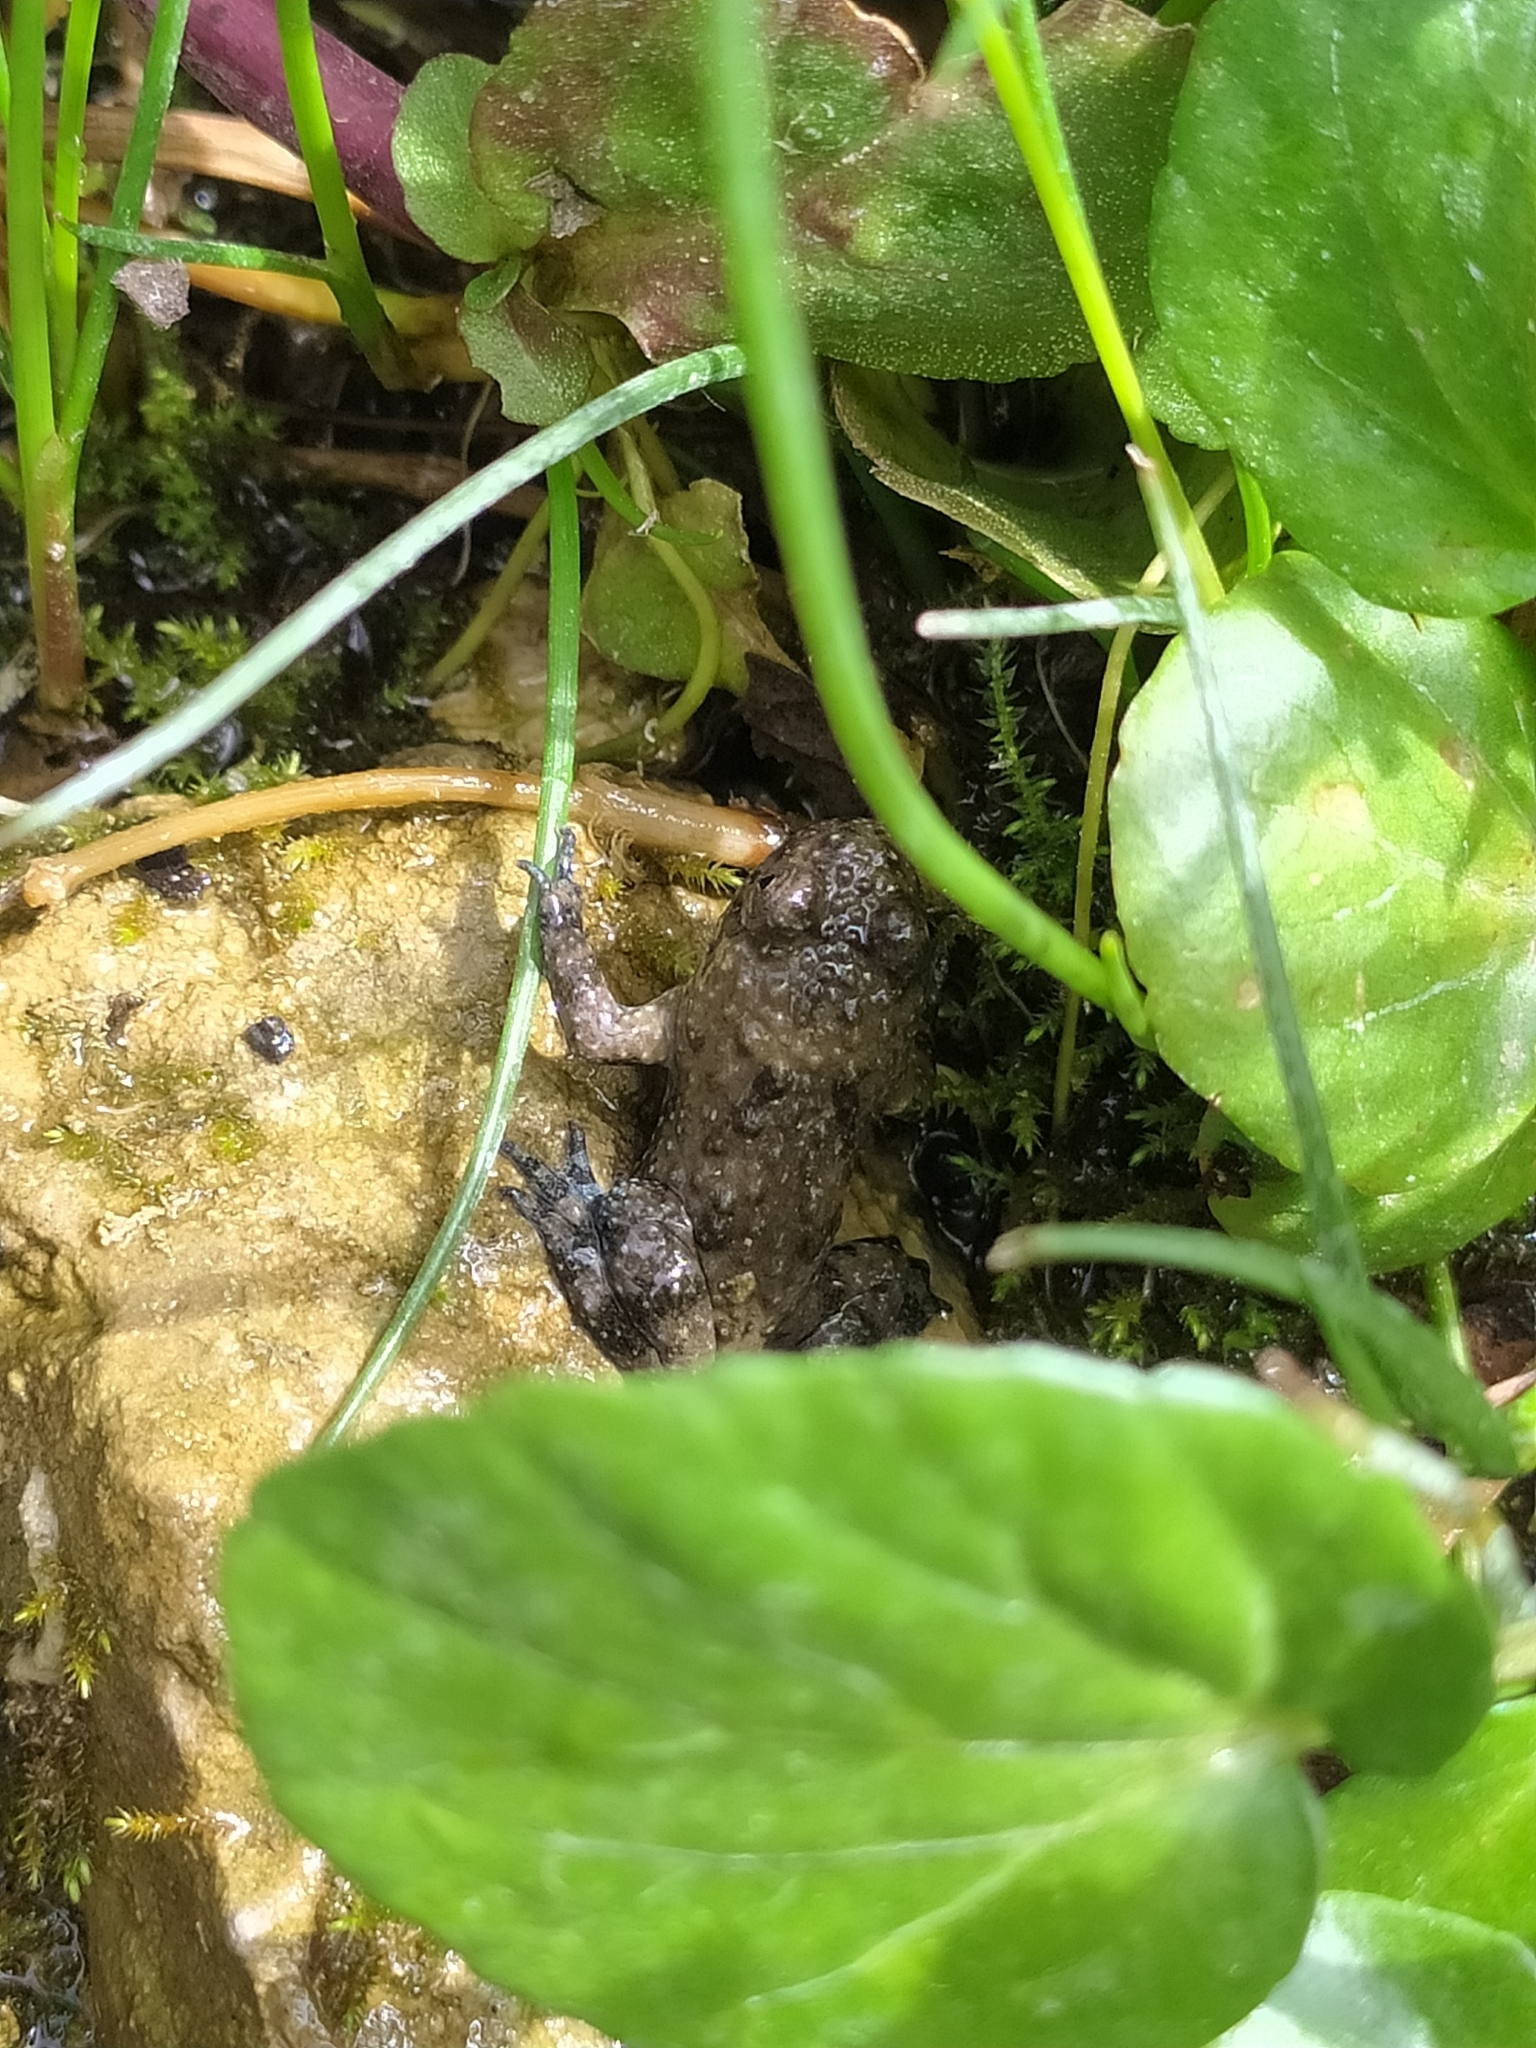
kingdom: Animalia
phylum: Chordata
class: Amphibia
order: Anura
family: Bombinatoridae
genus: Bombina
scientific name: Bombina variegata
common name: Yellow-bellied toad
